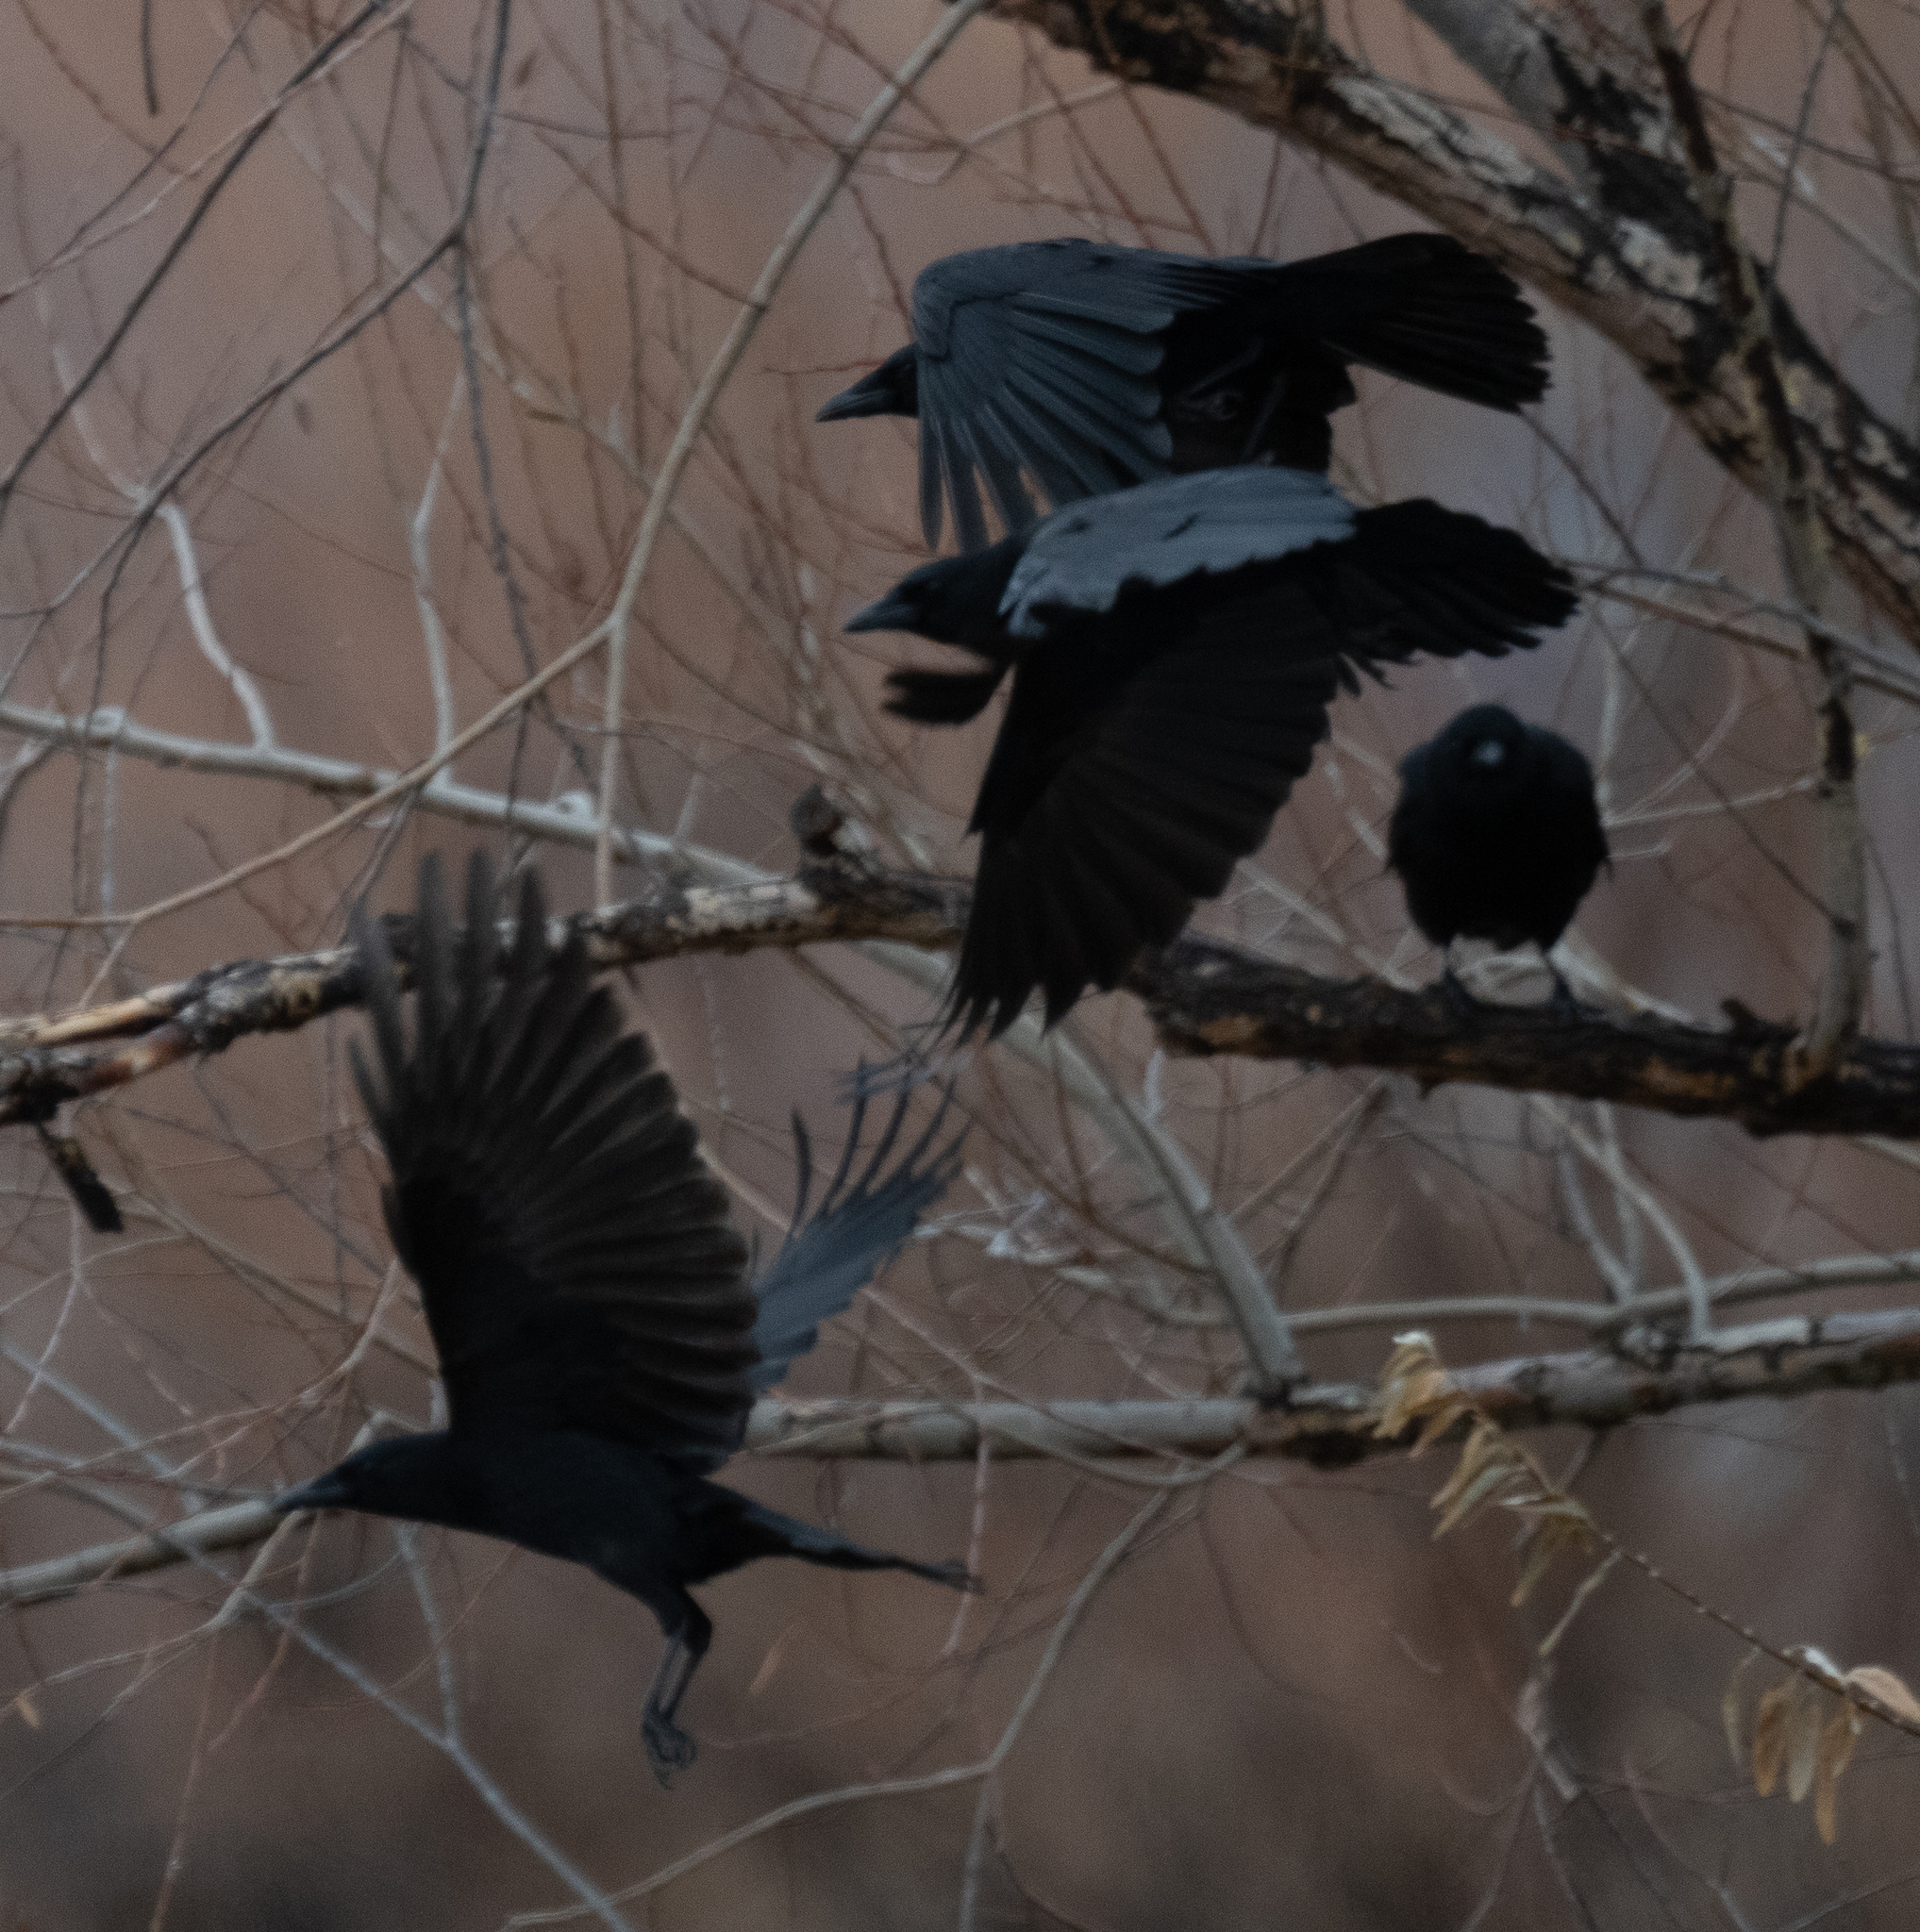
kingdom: Animalia
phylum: Chordata
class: Aves
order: Passeriformes
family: Corvidae
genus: Corvus
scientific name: Corvus brachyrhynchos
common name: American crow
